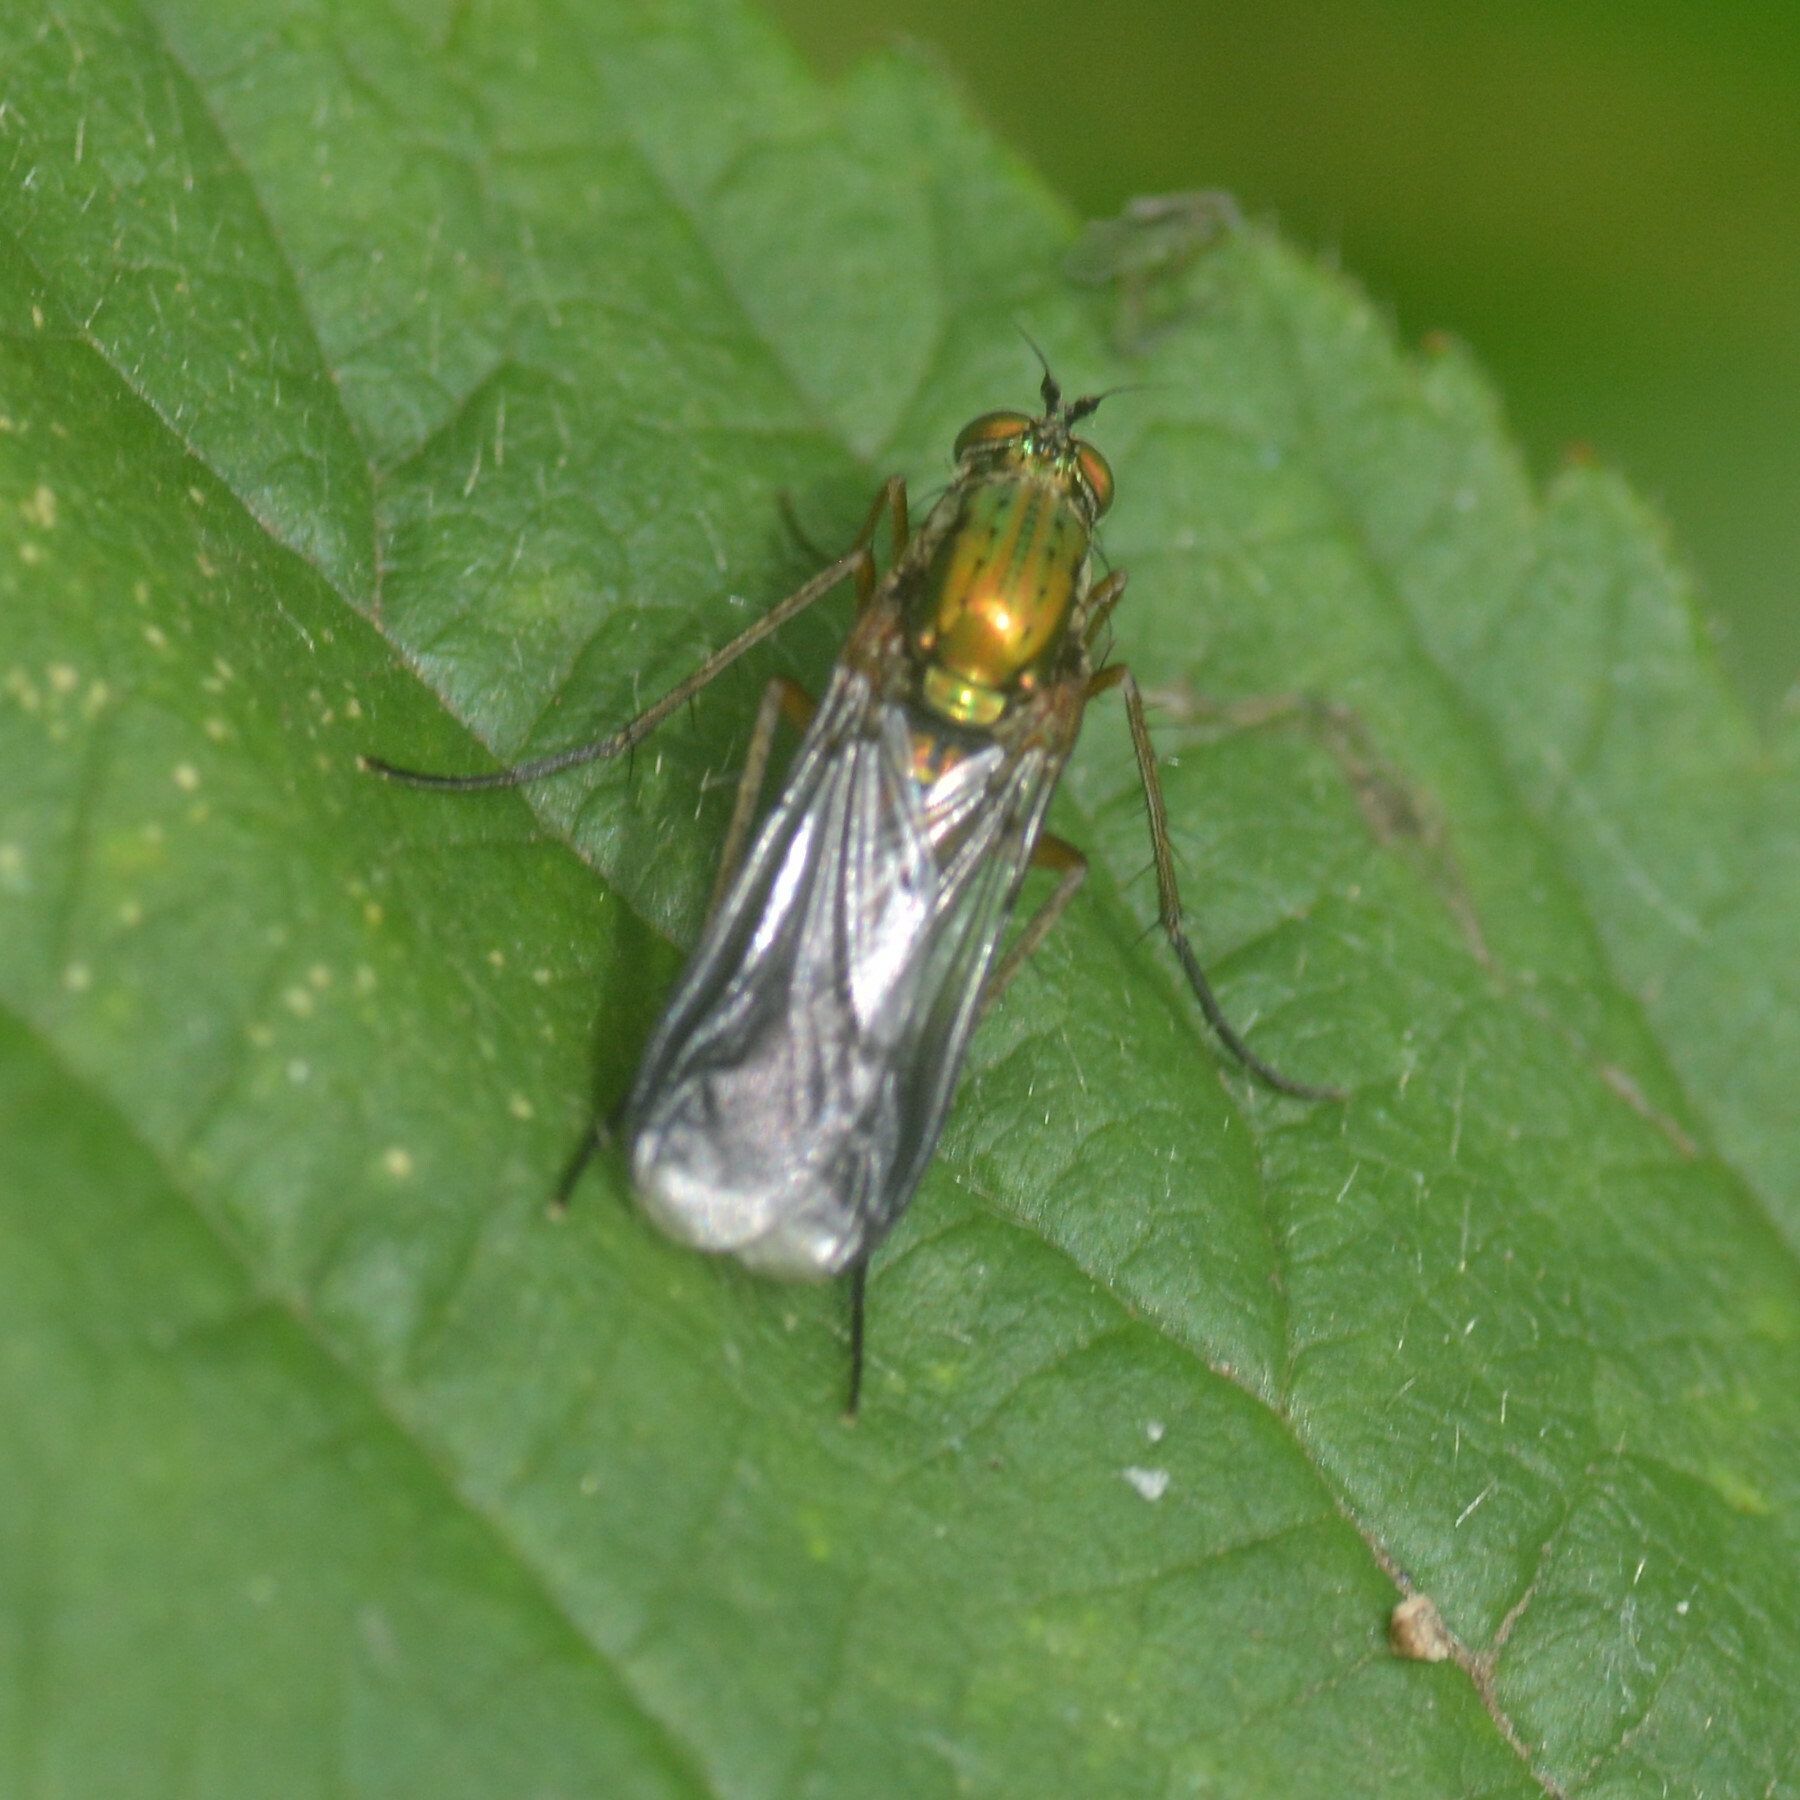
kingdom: Animalia
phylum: Arthropoda
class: Insecta
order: Diptera
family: Dolichopodidae
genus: Poecilobothrus
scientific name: Poecilobothrus nobilitatus
